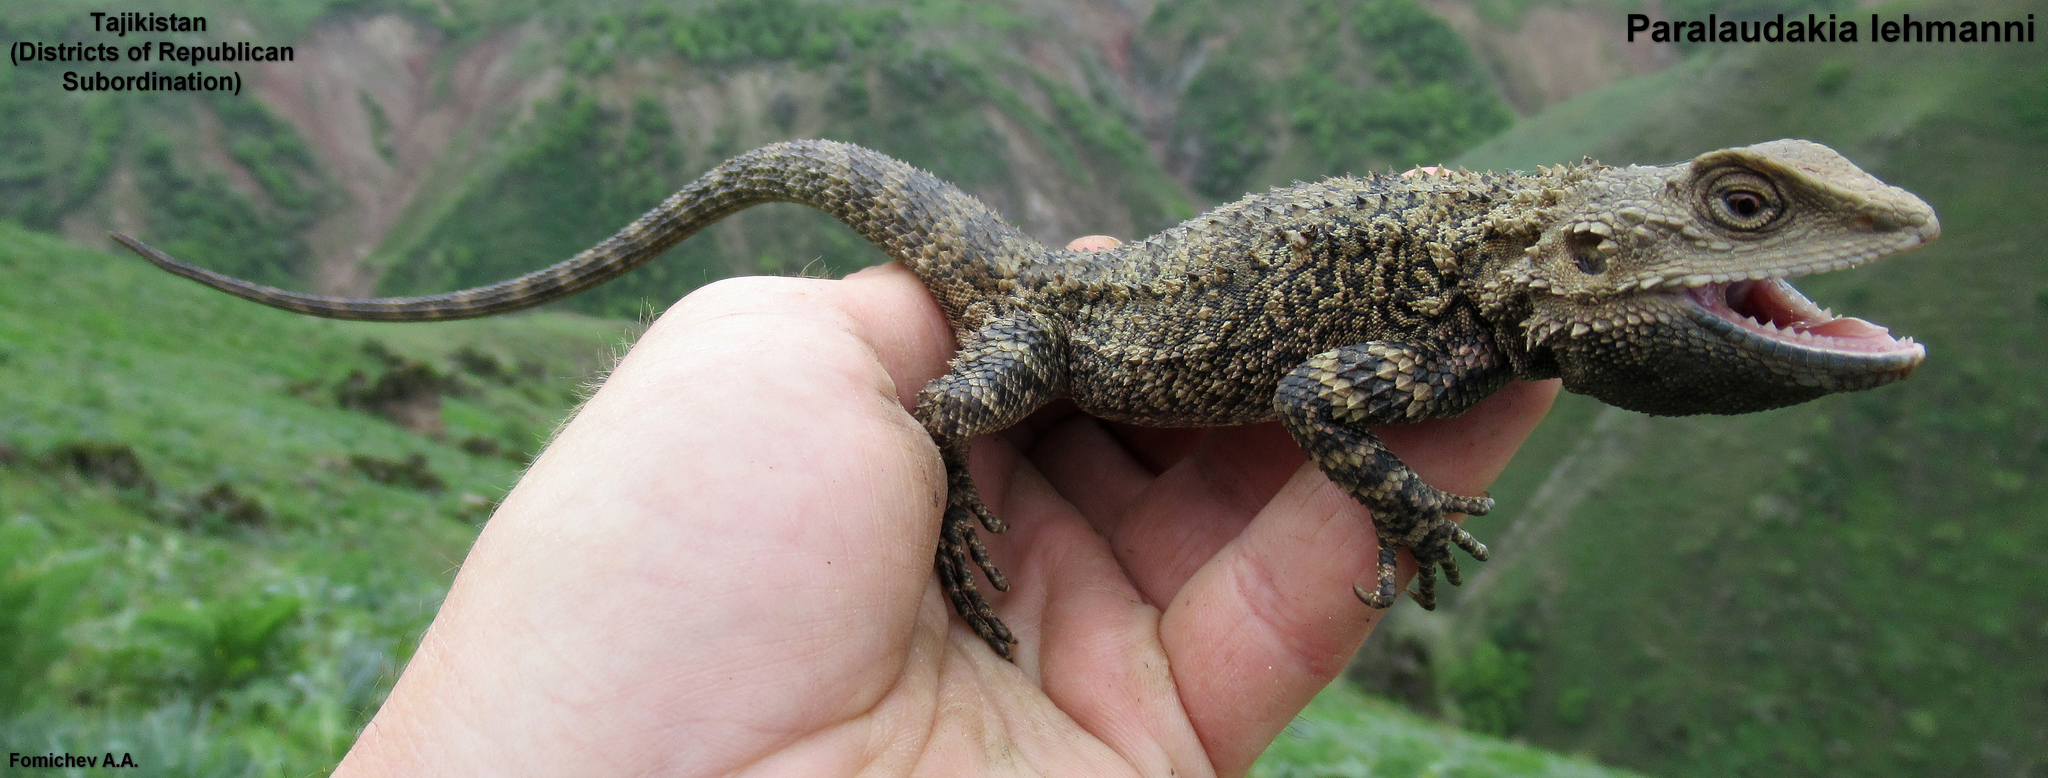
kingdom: Animalia
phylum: Chordata
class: Squamata
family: Agamidae
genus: Paralaudakia
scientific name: Paralaudakia lehmanni
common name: Turkestan rock agama
